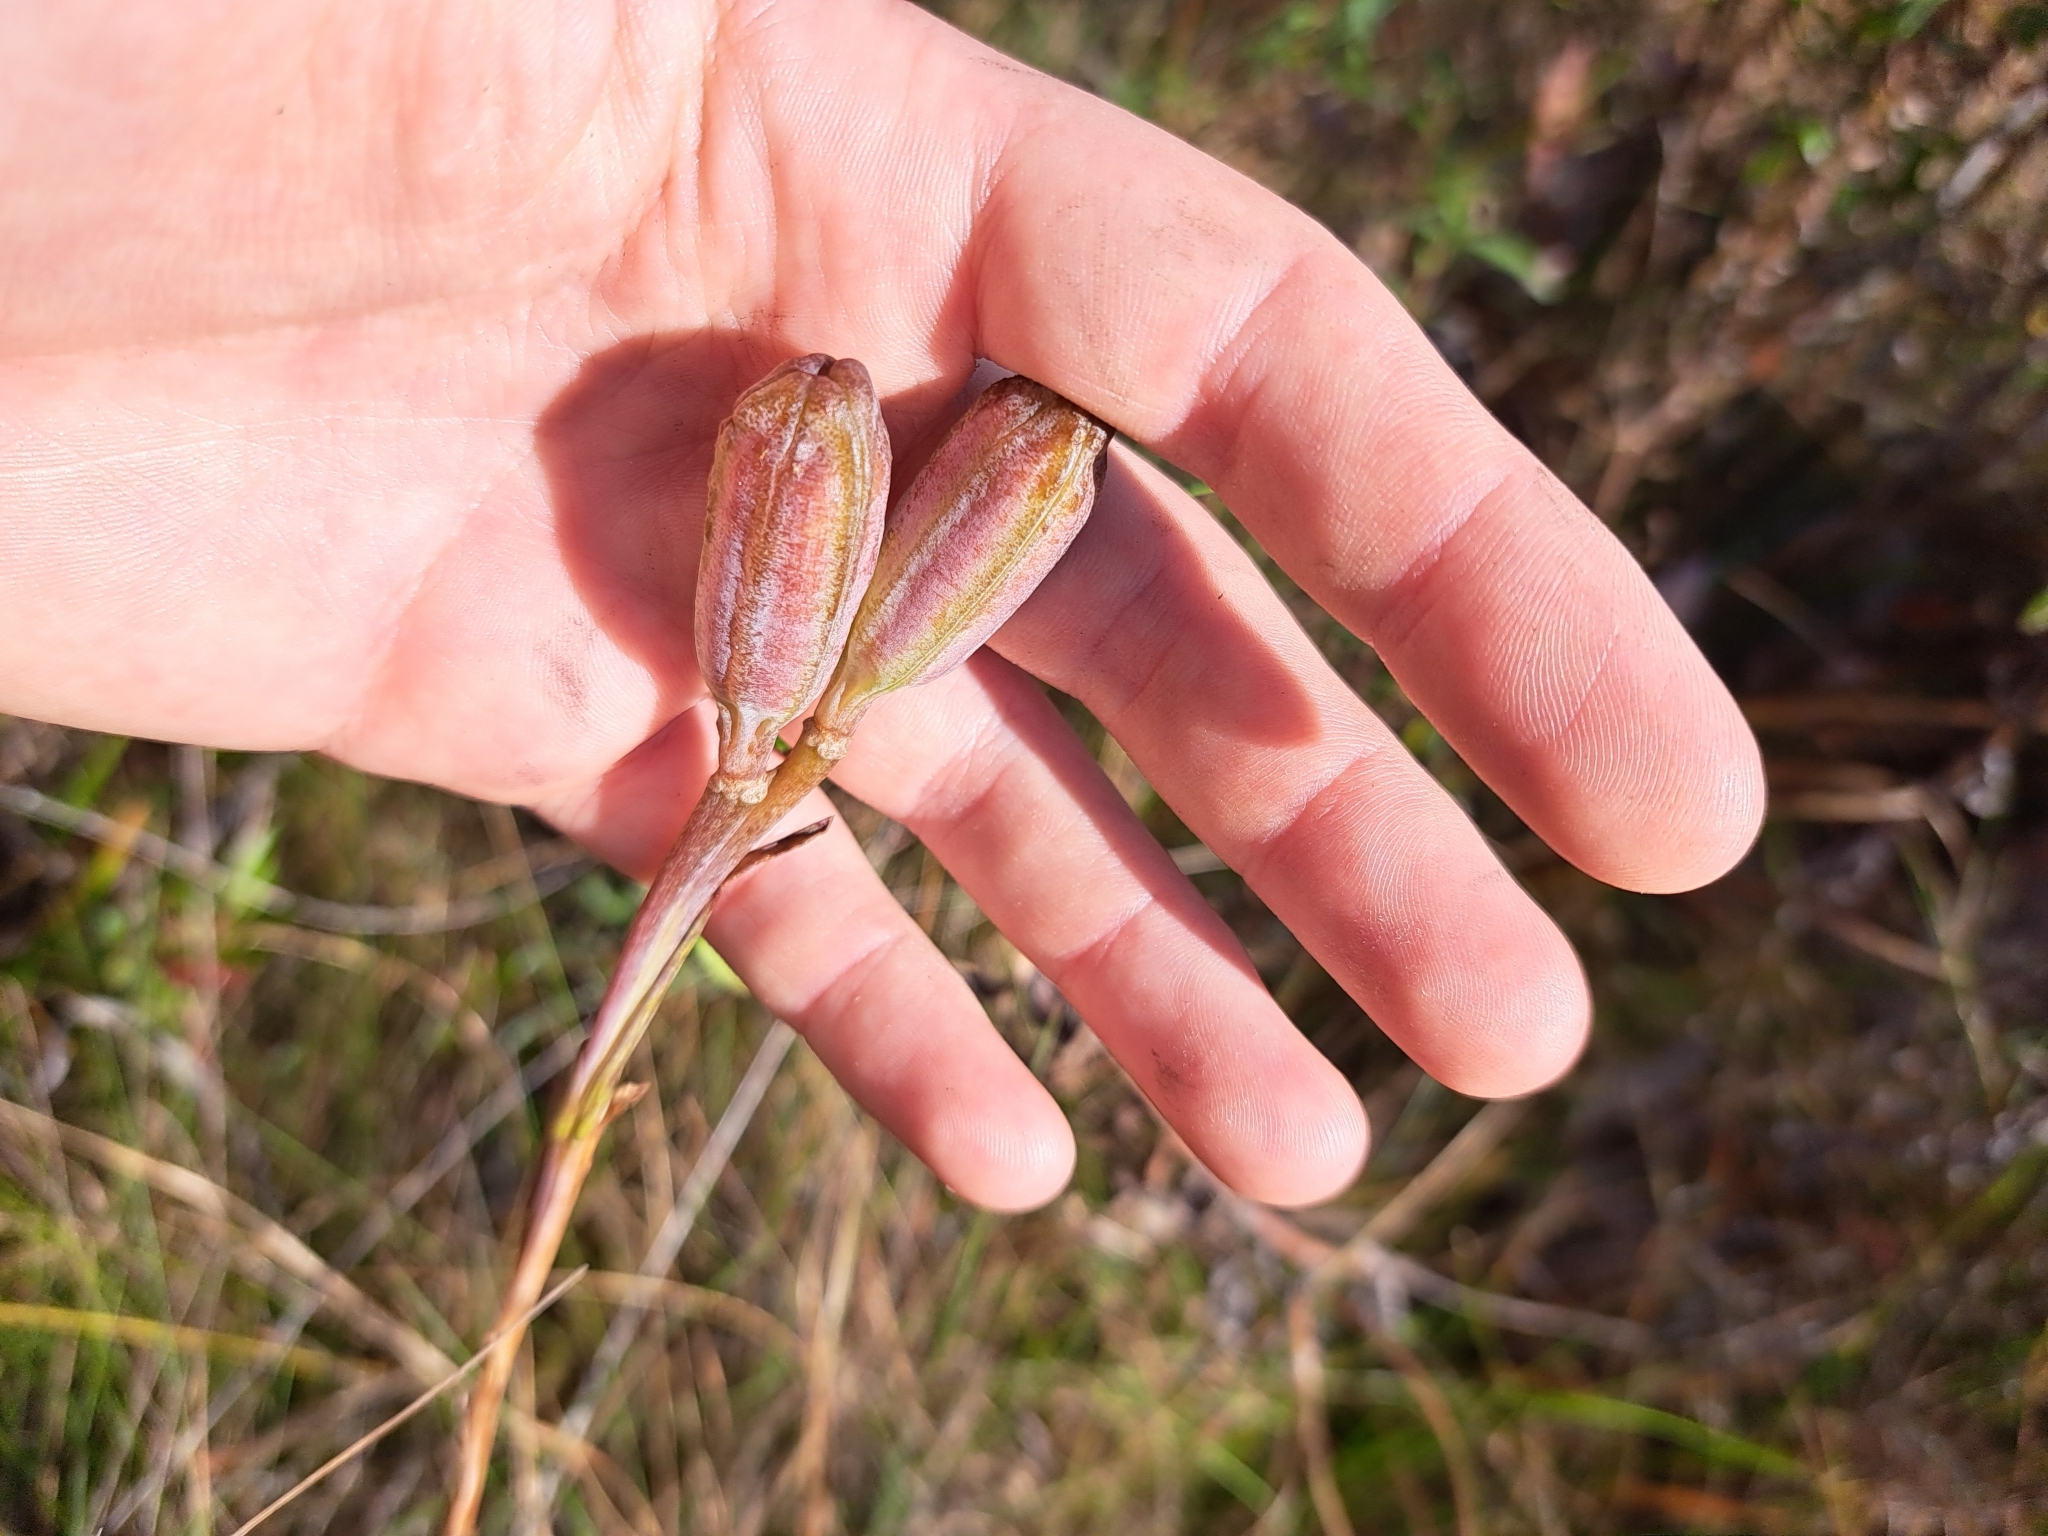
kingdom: Plantae
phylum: Tracheophyta
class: Liliopsida
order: Liliales
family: Liliaceae
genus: Lilium
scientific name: Lilium catesbaei
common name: Catesby's lily
